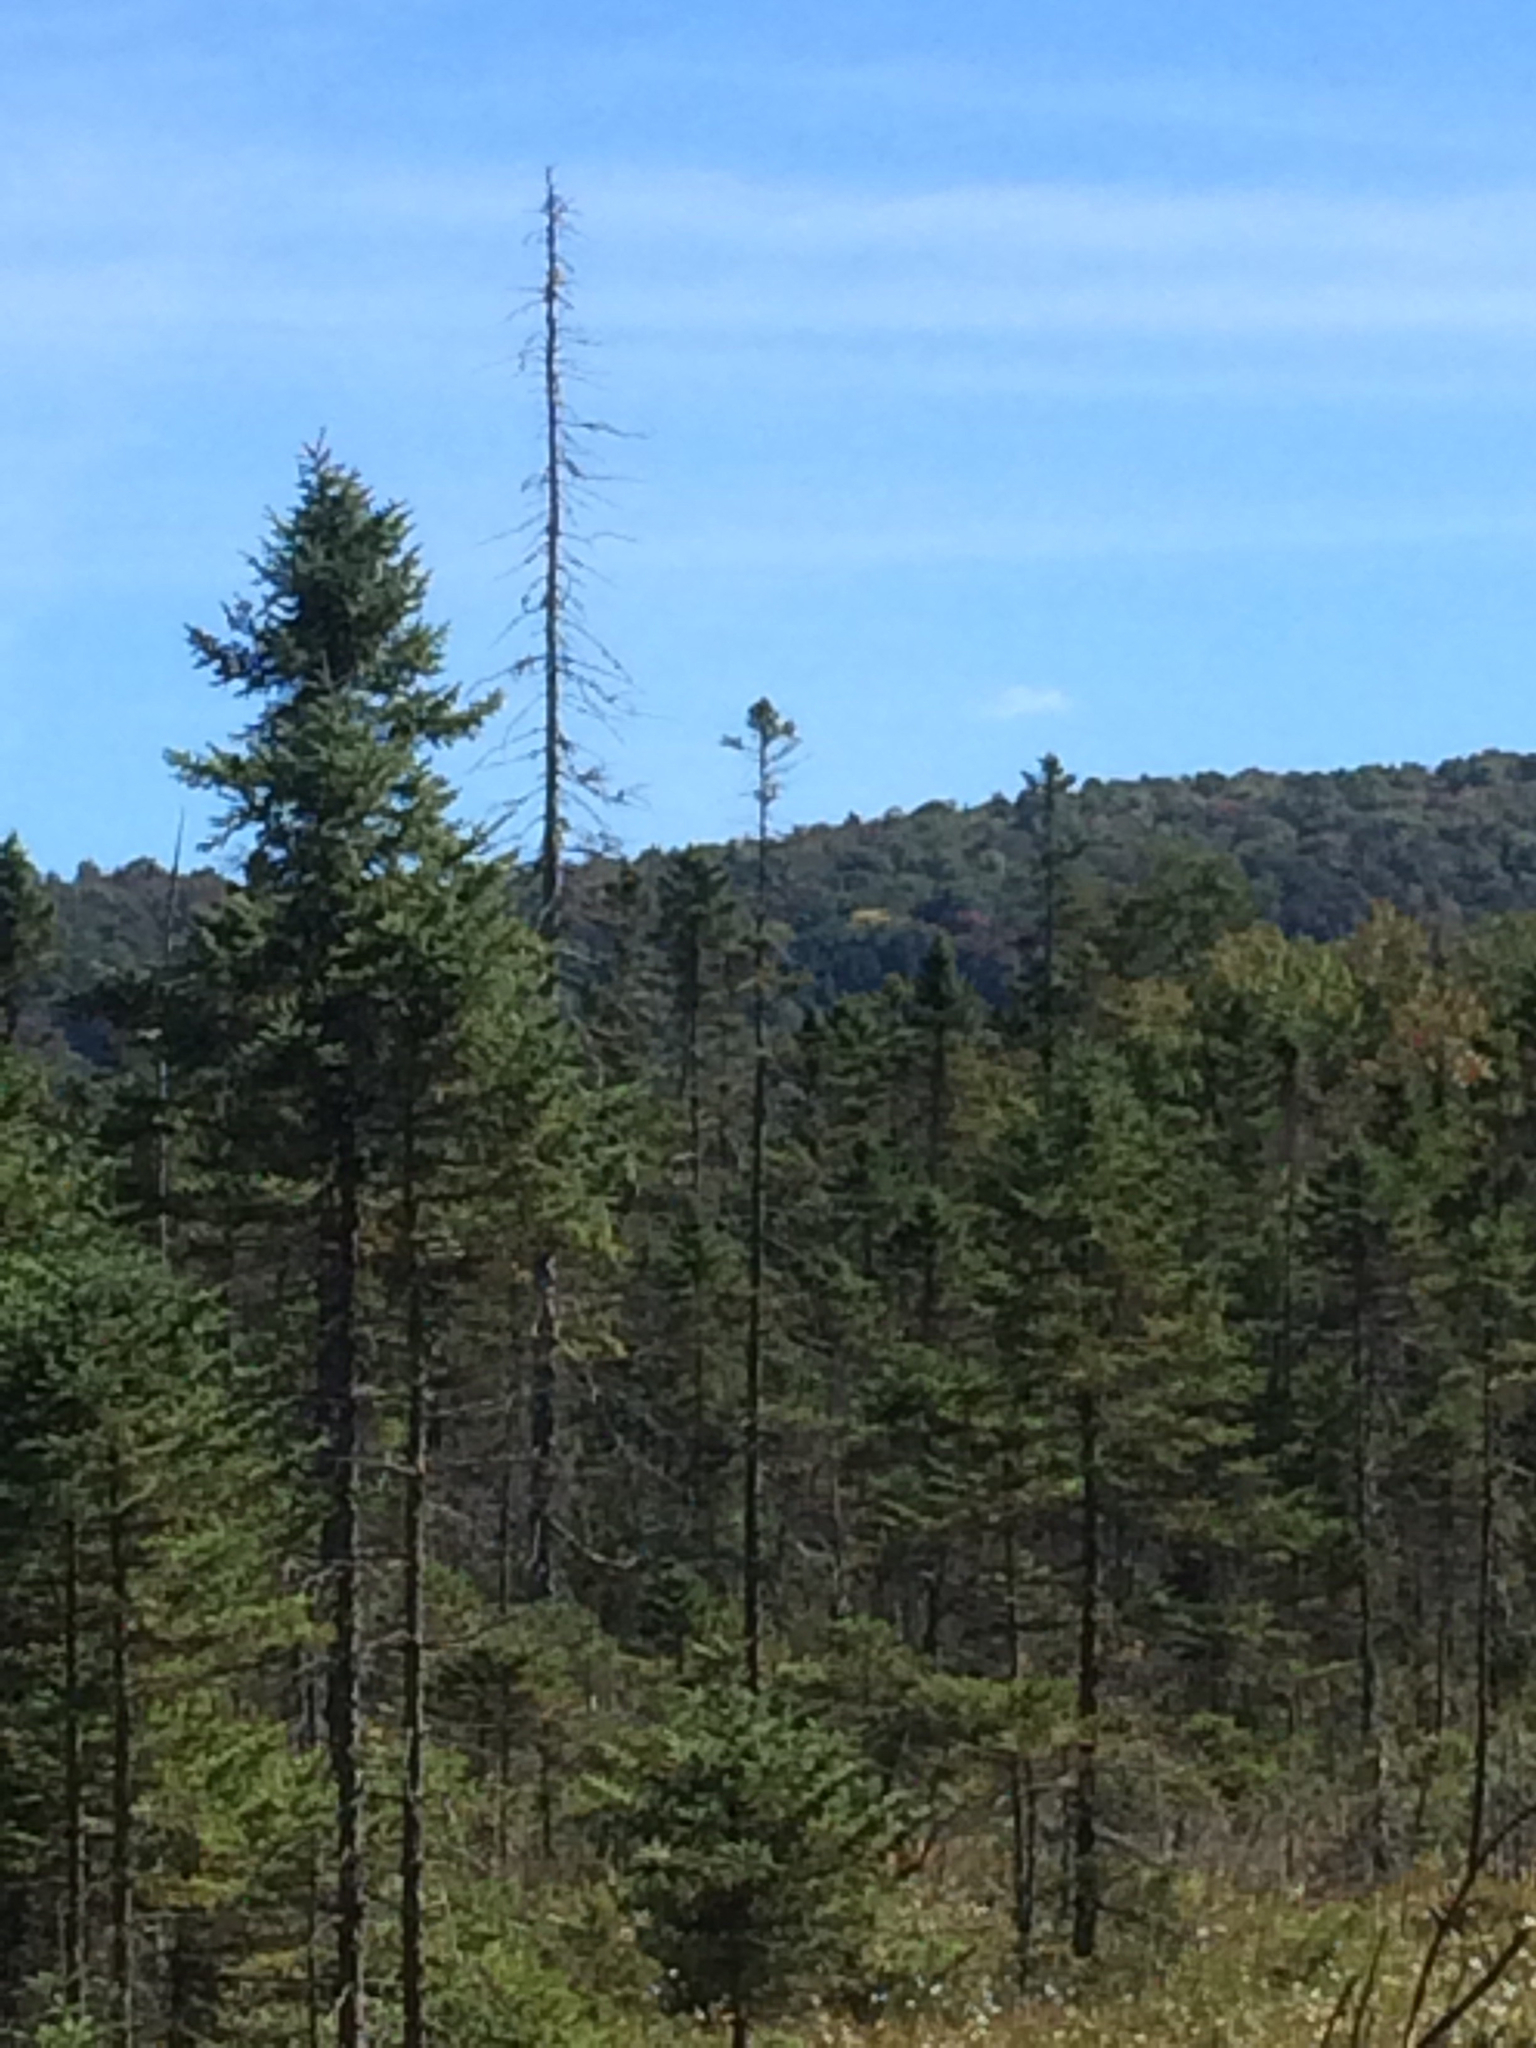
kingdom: Plantae
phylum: Tracheophyta
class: Pinopsida
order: Pinales
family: Pinaceae
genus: Picea
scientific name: Picea mariana
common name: Black spruce
